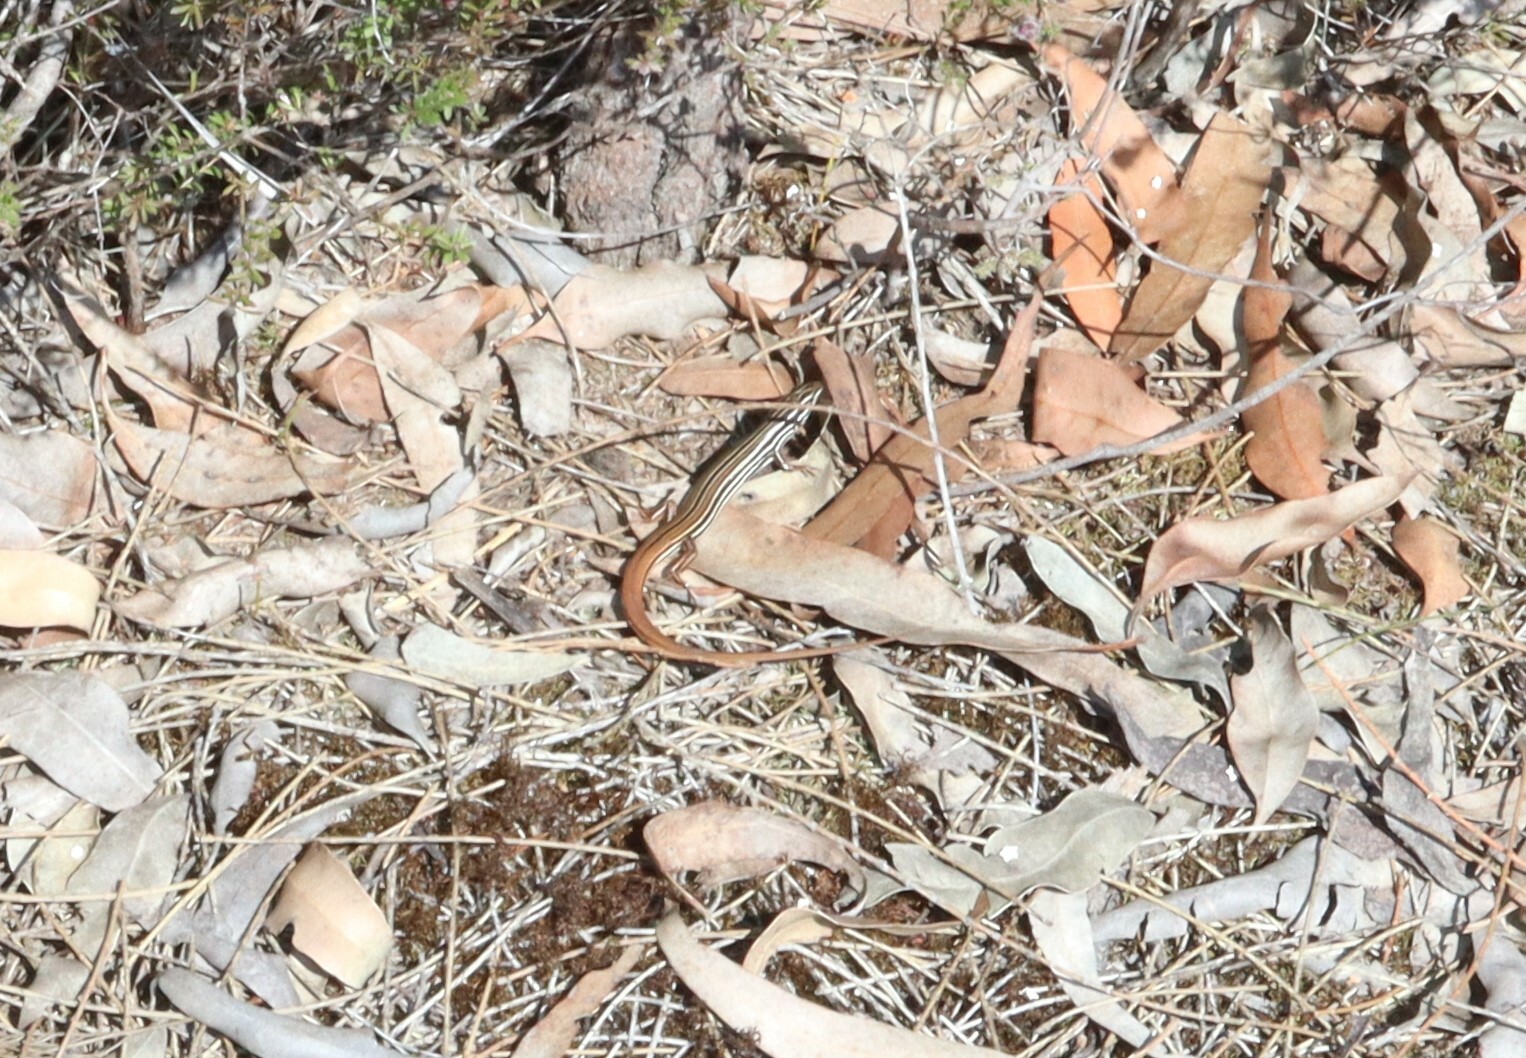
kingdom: Animalia
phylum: Chordata
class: Squamata
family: Scincidae
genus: Ctenotus
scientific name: Ctenotus taeniolatus
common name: Copper-tailed skink
